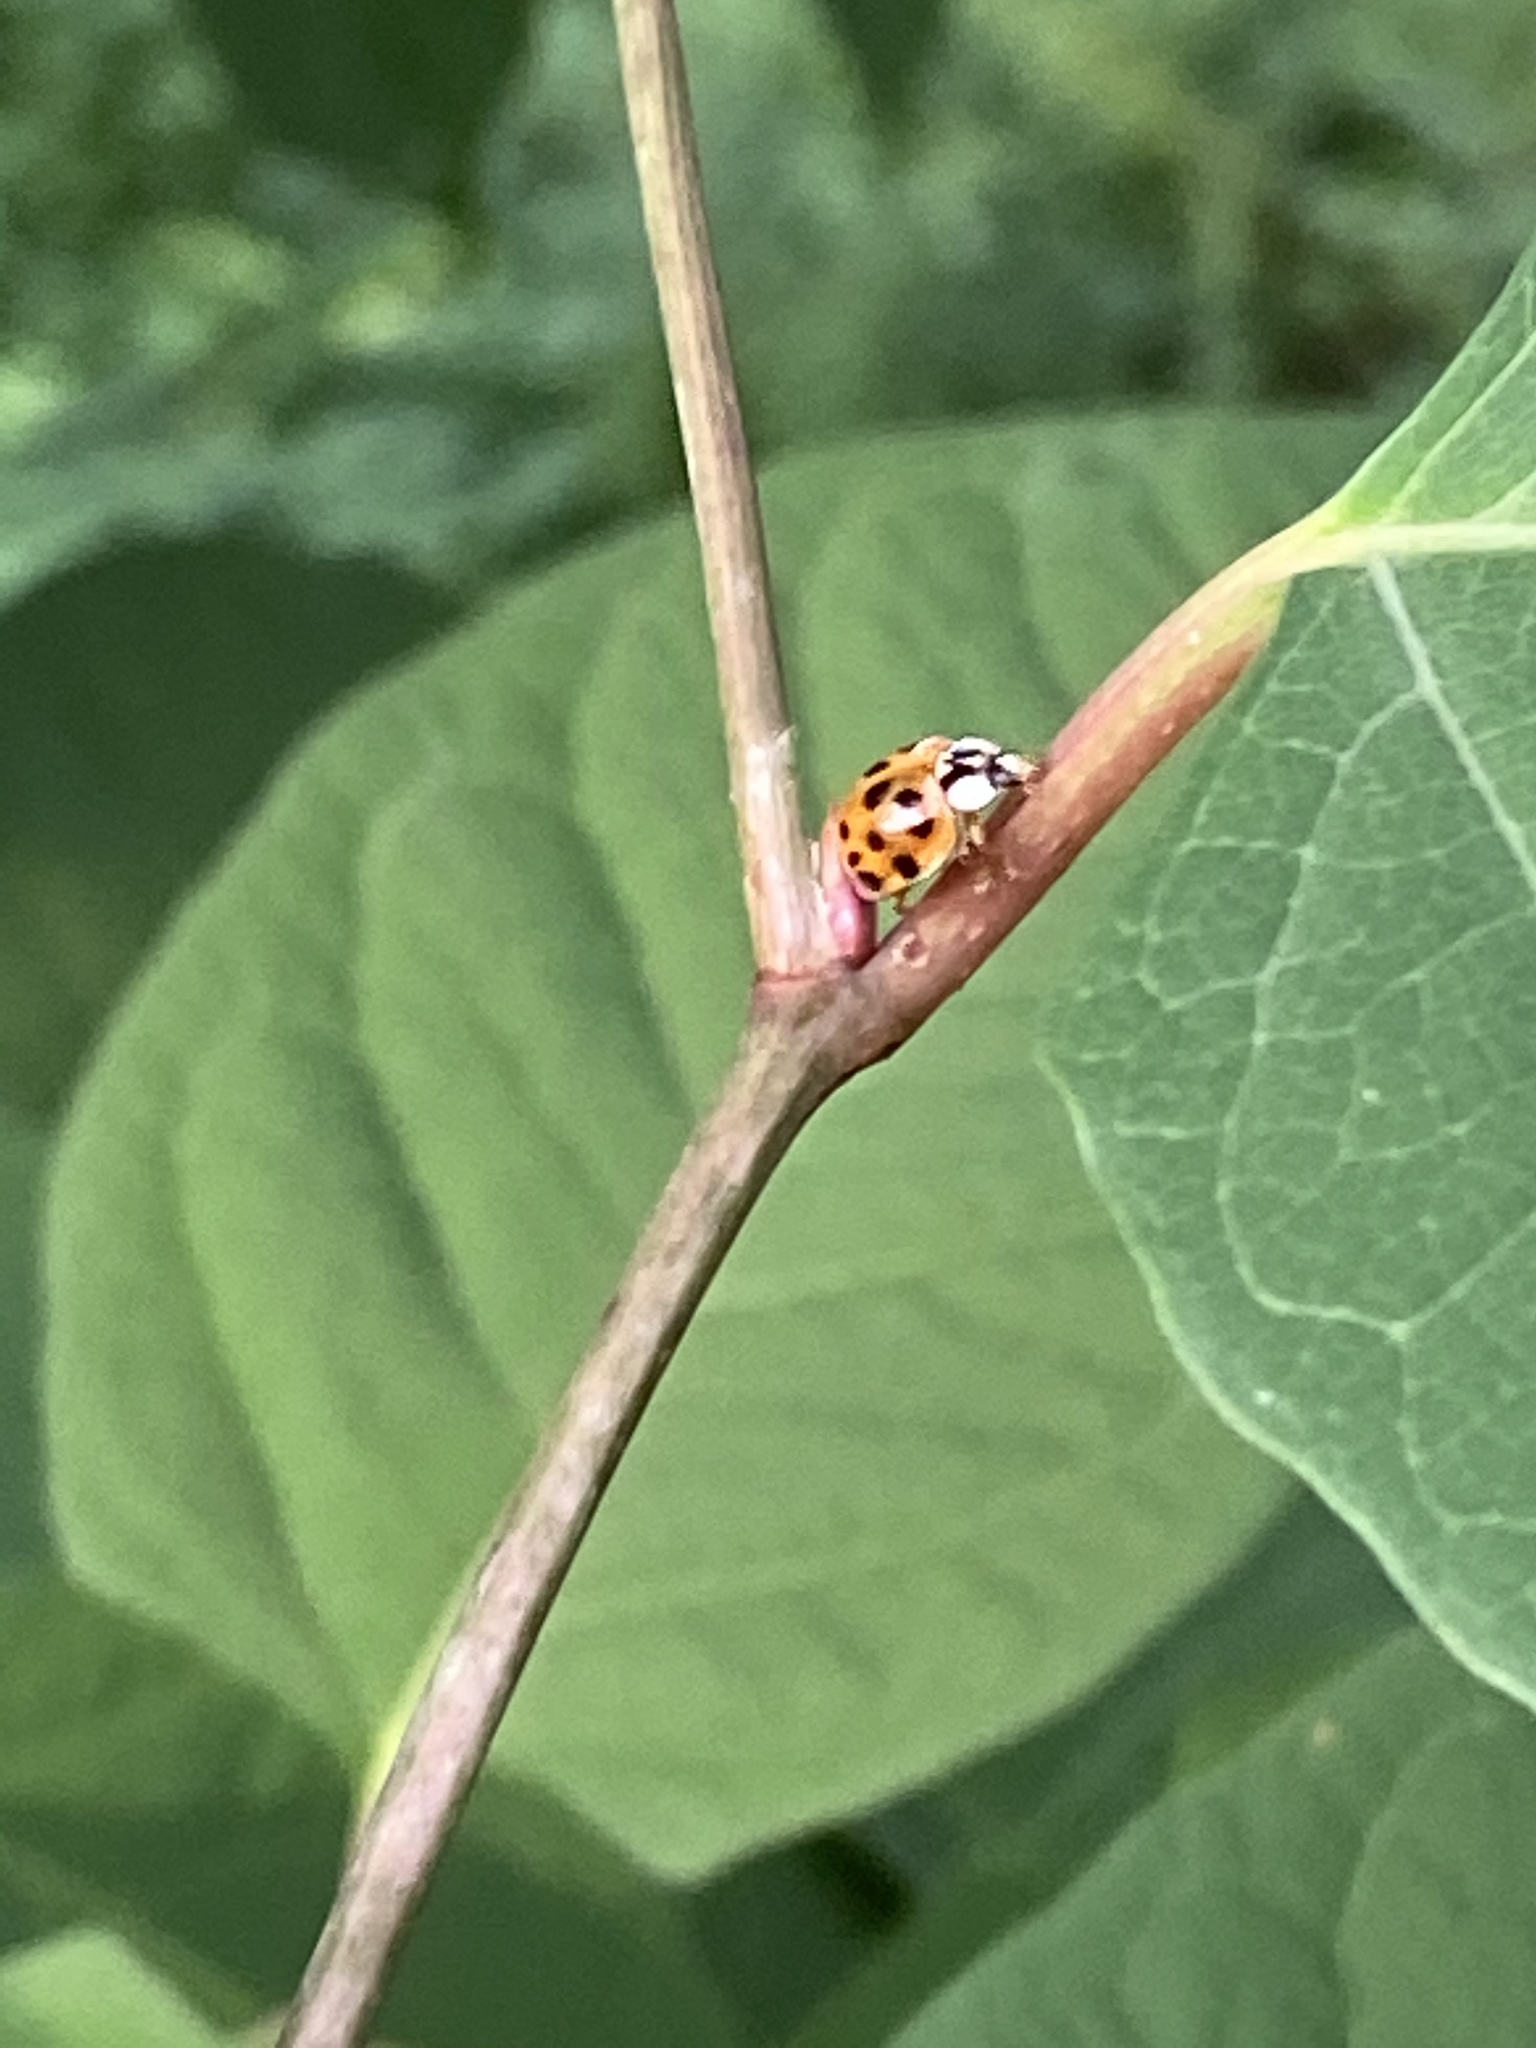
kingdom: Animalia
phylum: Arthropoda
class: Insecta
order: Coleoptera
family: Coccinellidae
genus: Harmonia
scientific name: Harmonia axyridis
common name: Harlequin ladybird
